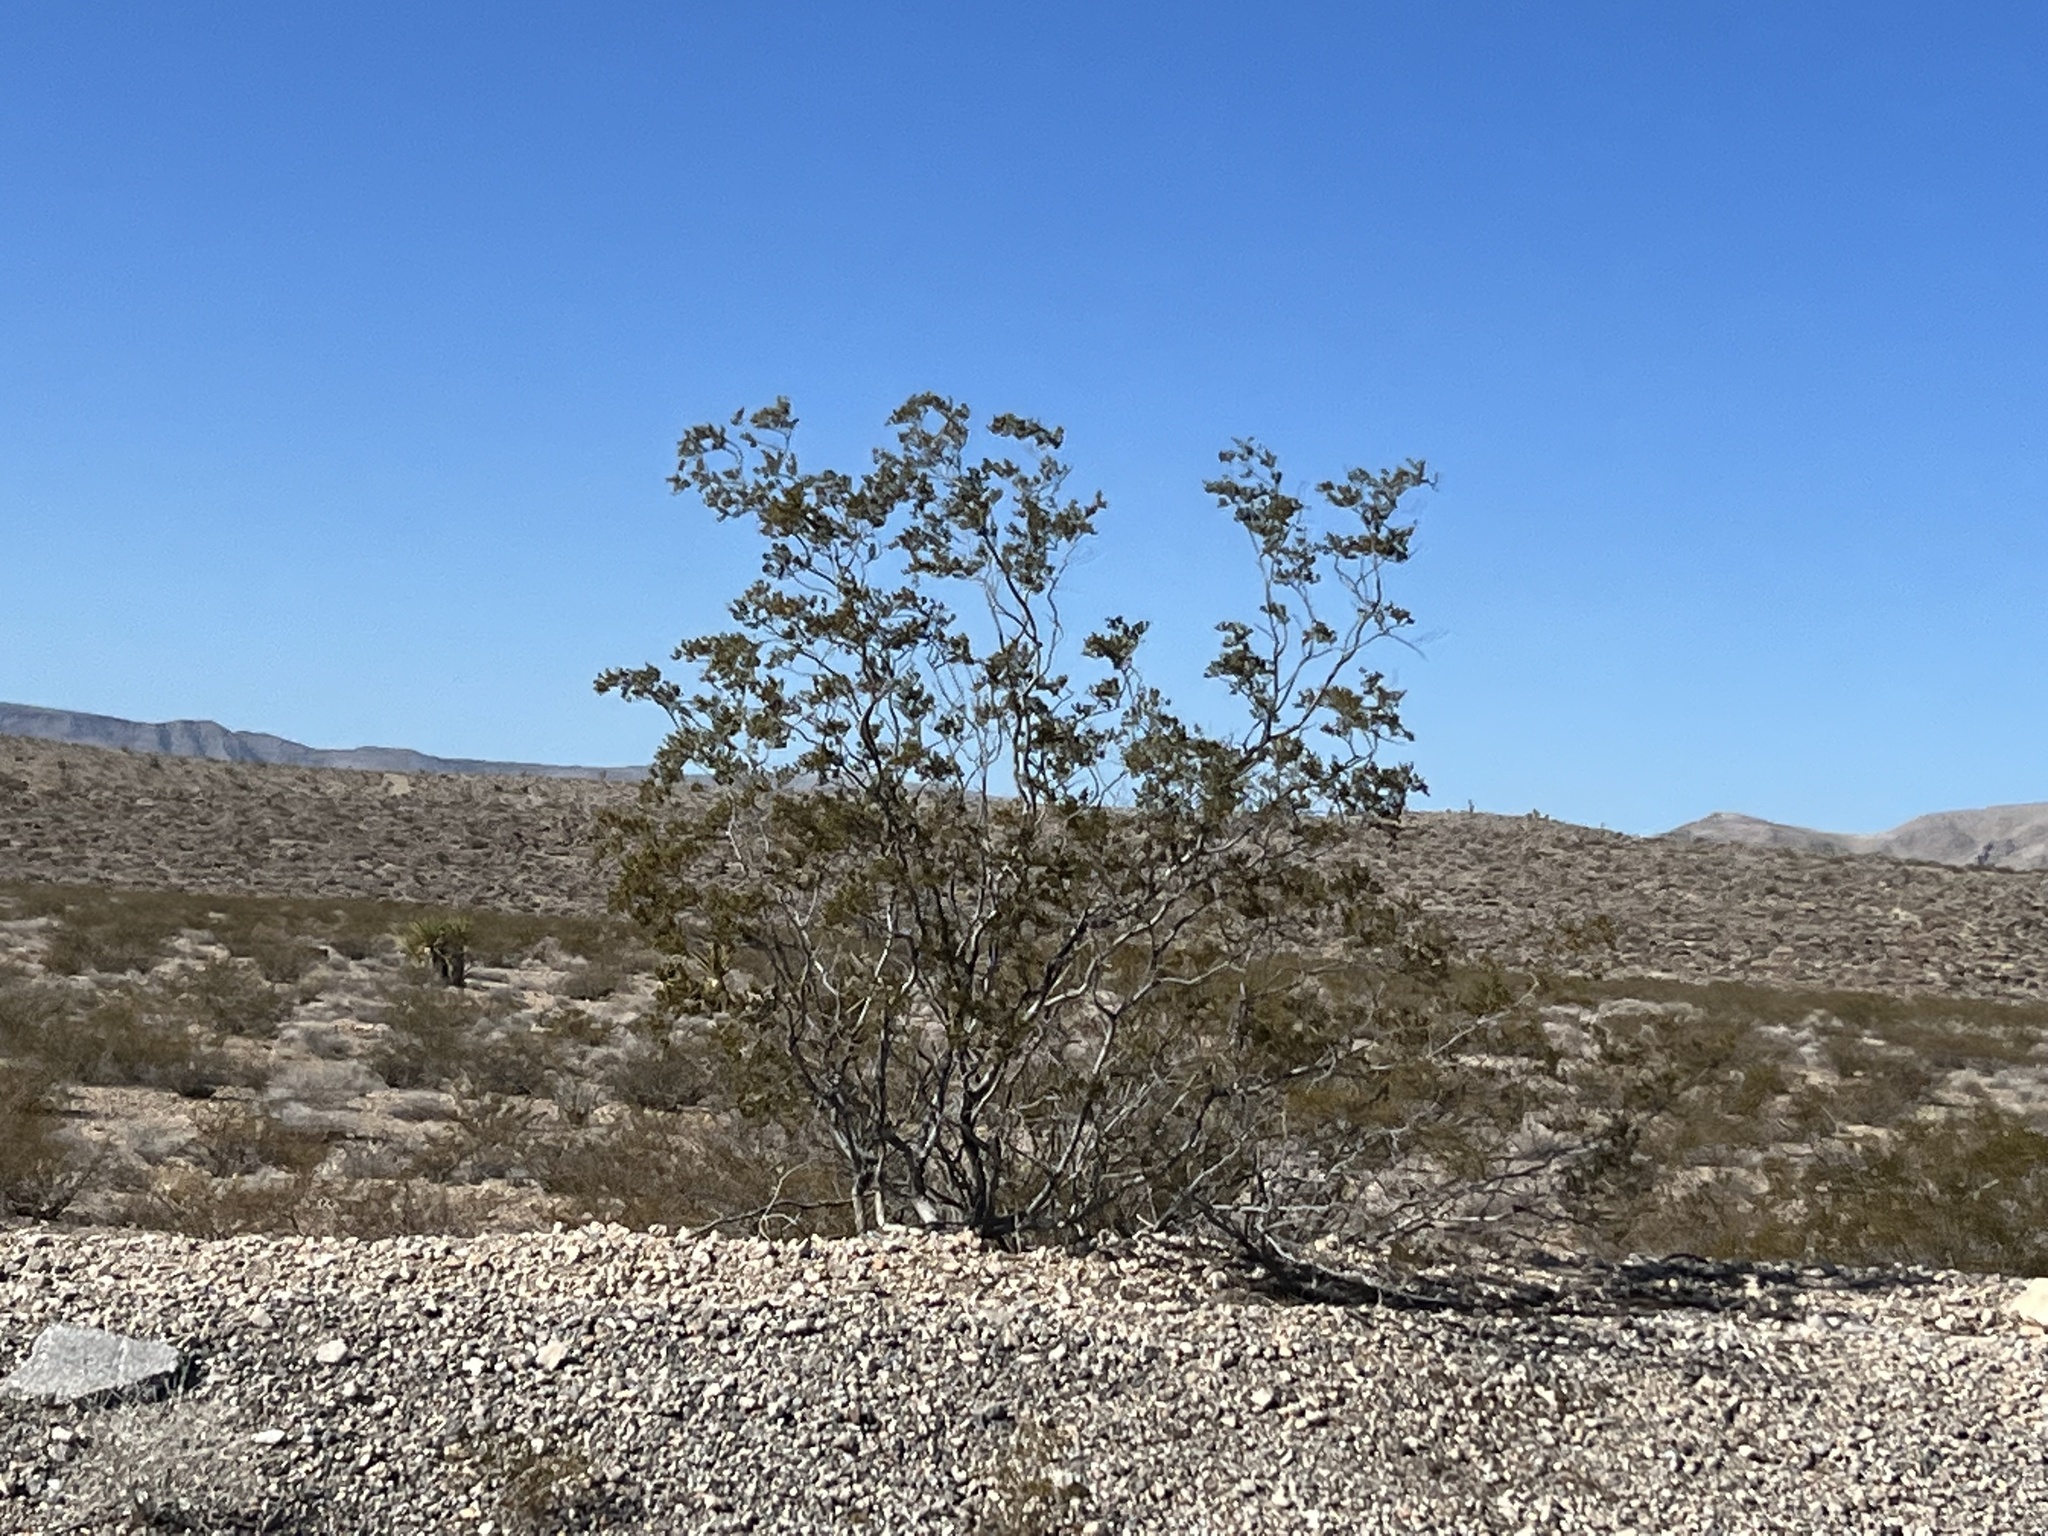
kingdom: Plantae
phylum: Tracheophyta
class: Magnoliopsida
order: Zygophyllales
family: Zygophyllaceae
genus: Larrea
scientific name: Larrea tridentata
